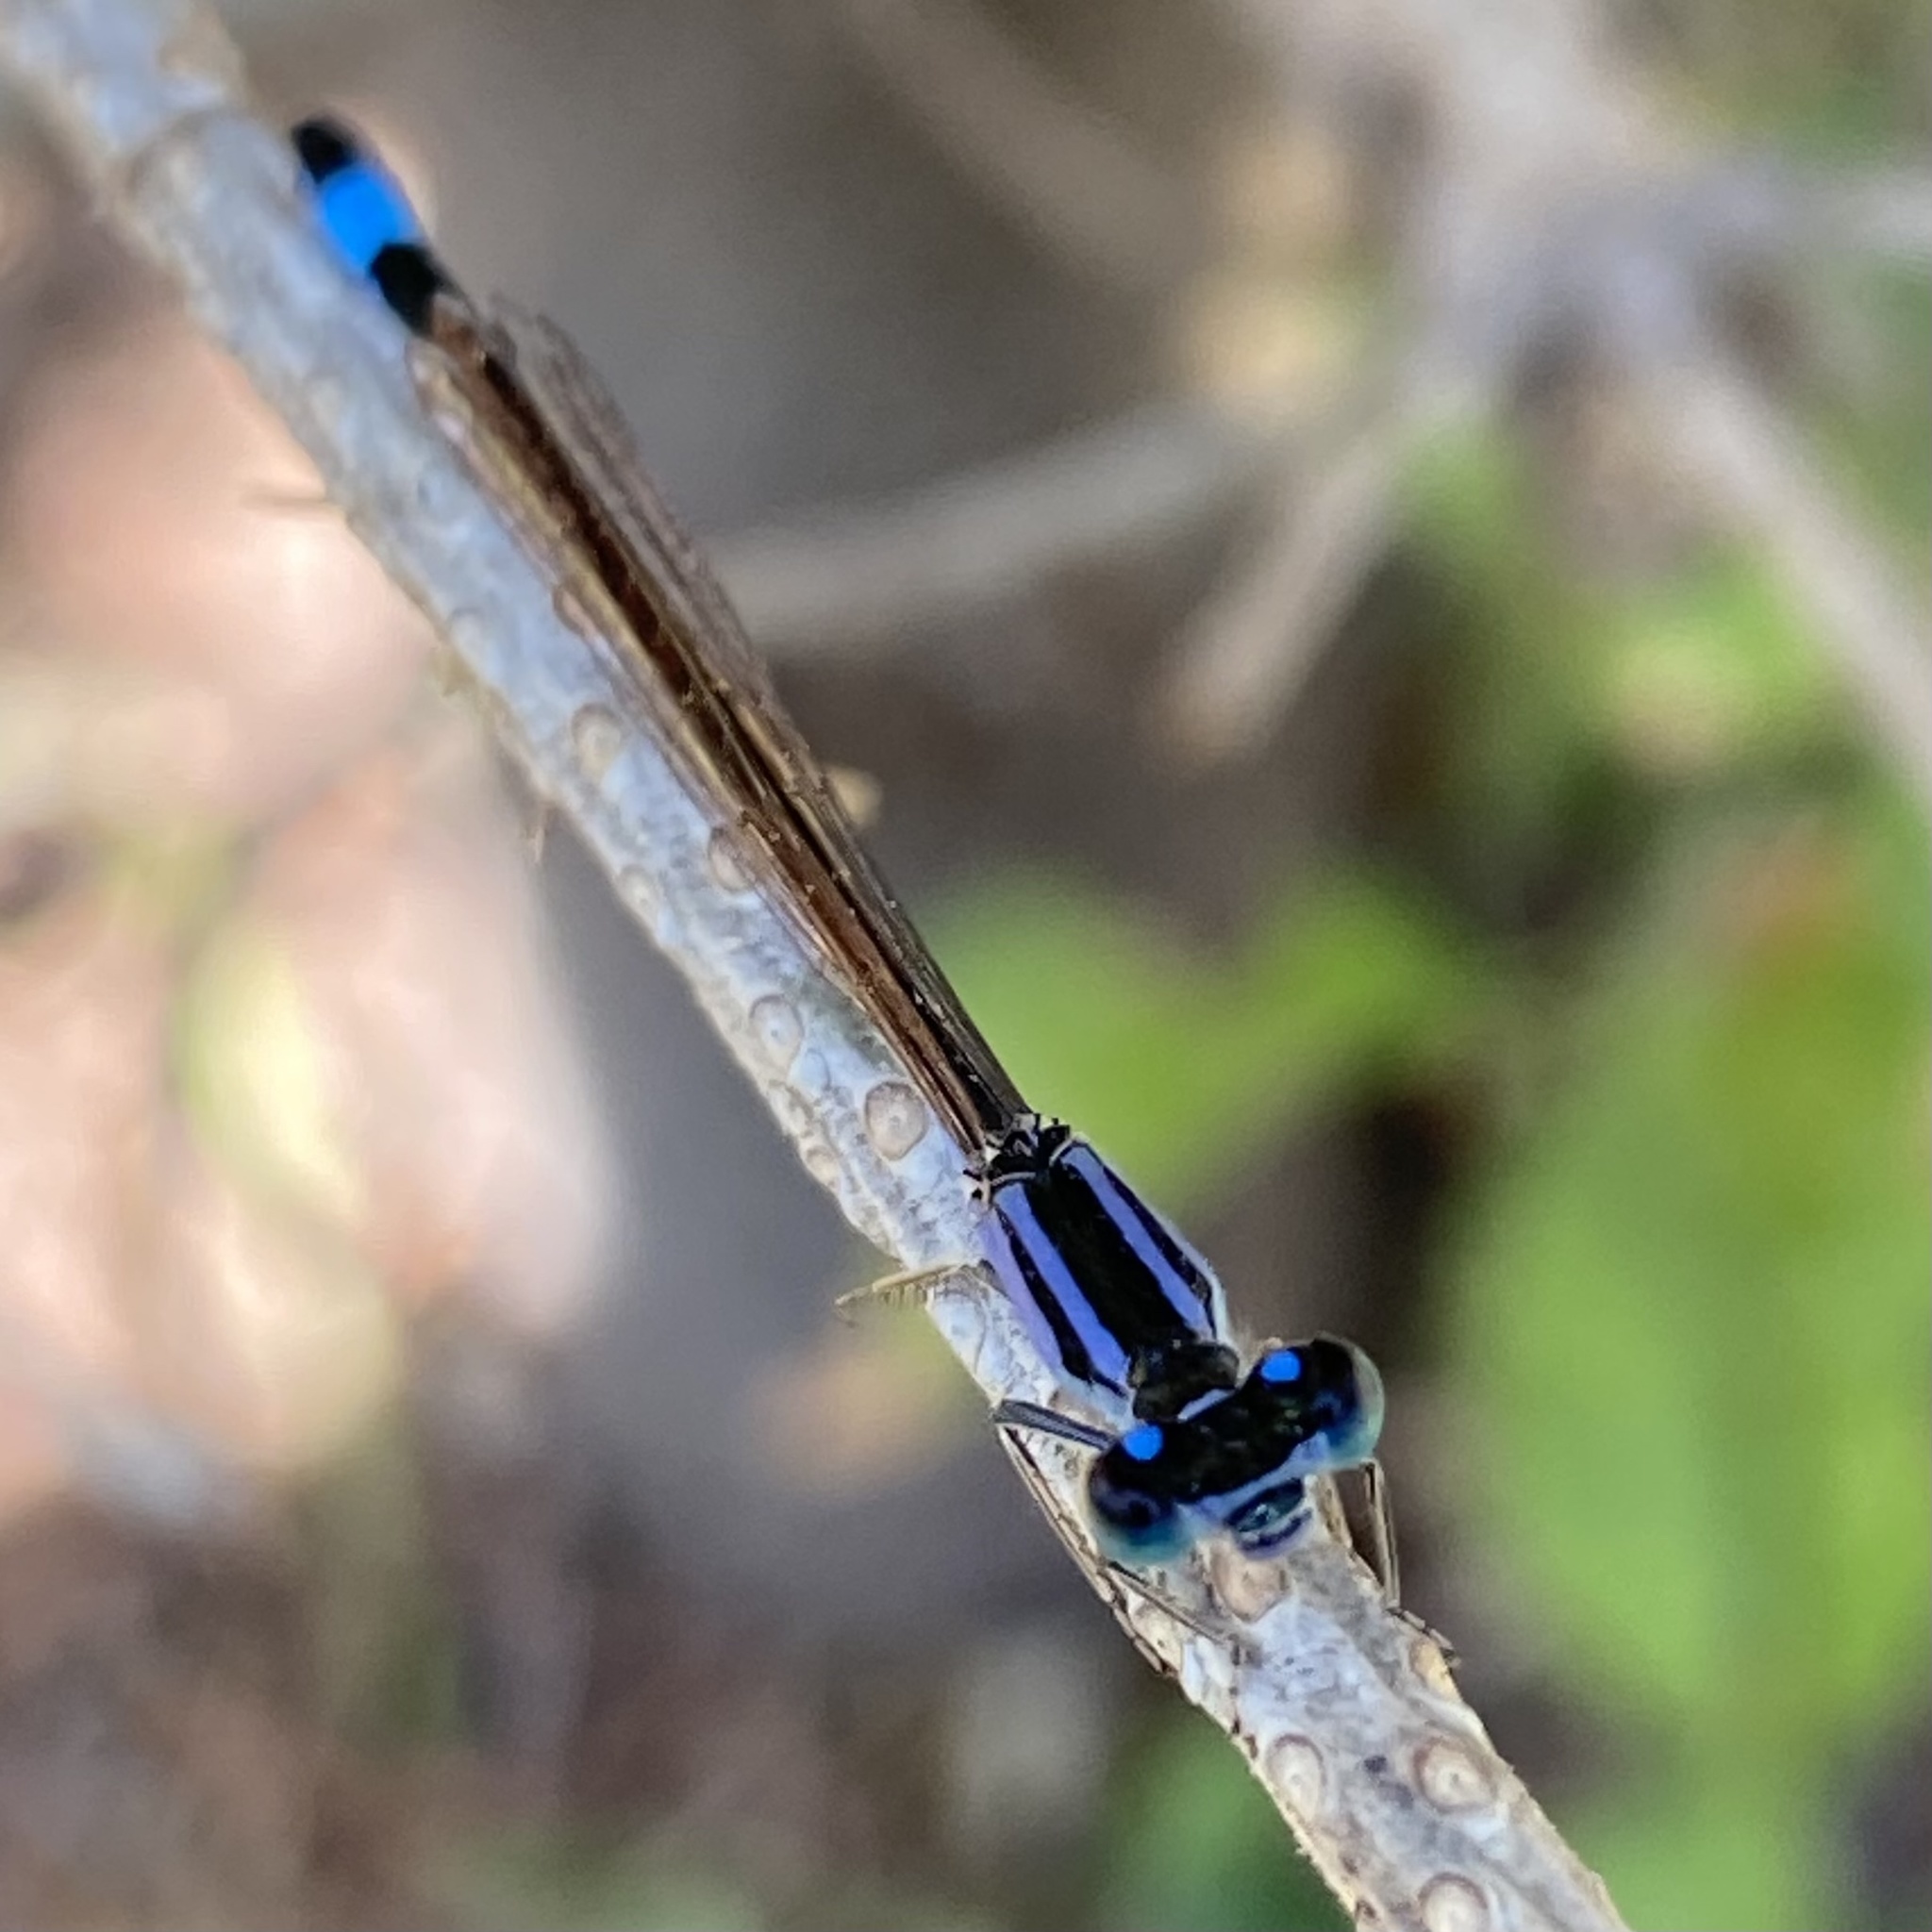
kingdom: Animalia
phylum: Arthropoda
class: Insecta
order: Odonata
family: Coenagrionidae
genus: Ischnura
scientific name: Ischnura elegans
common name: Blue-tailed damselfly
